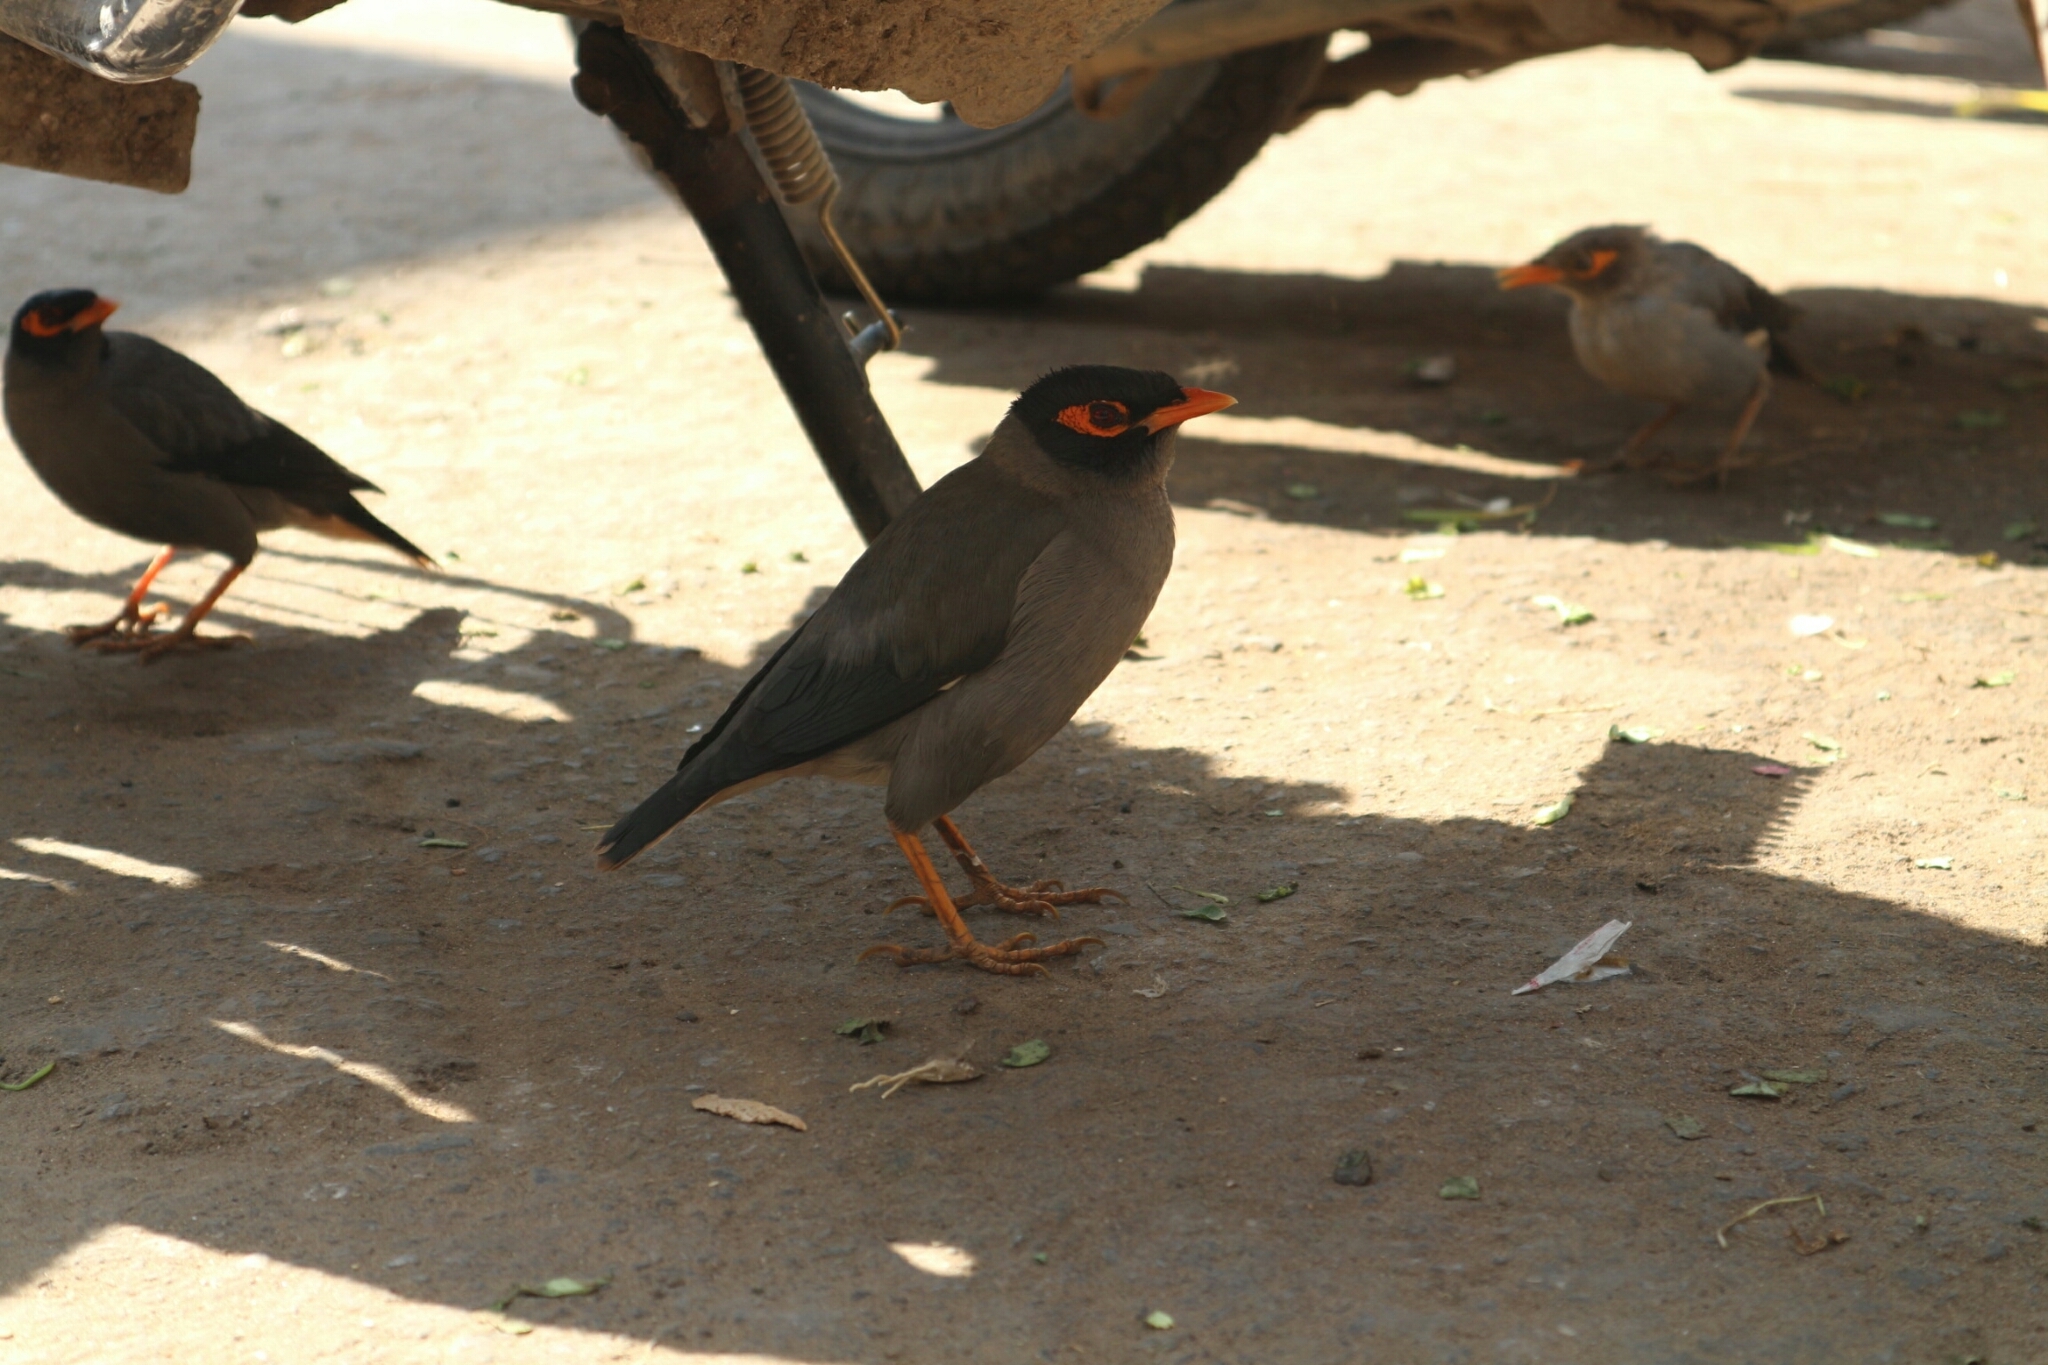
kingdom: Animalia
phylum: Chordata
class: Aves
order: Passeriformes
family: Sturnidae
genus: Acridotheres
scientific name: Acridotheres ginginianus
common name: Bank myna
